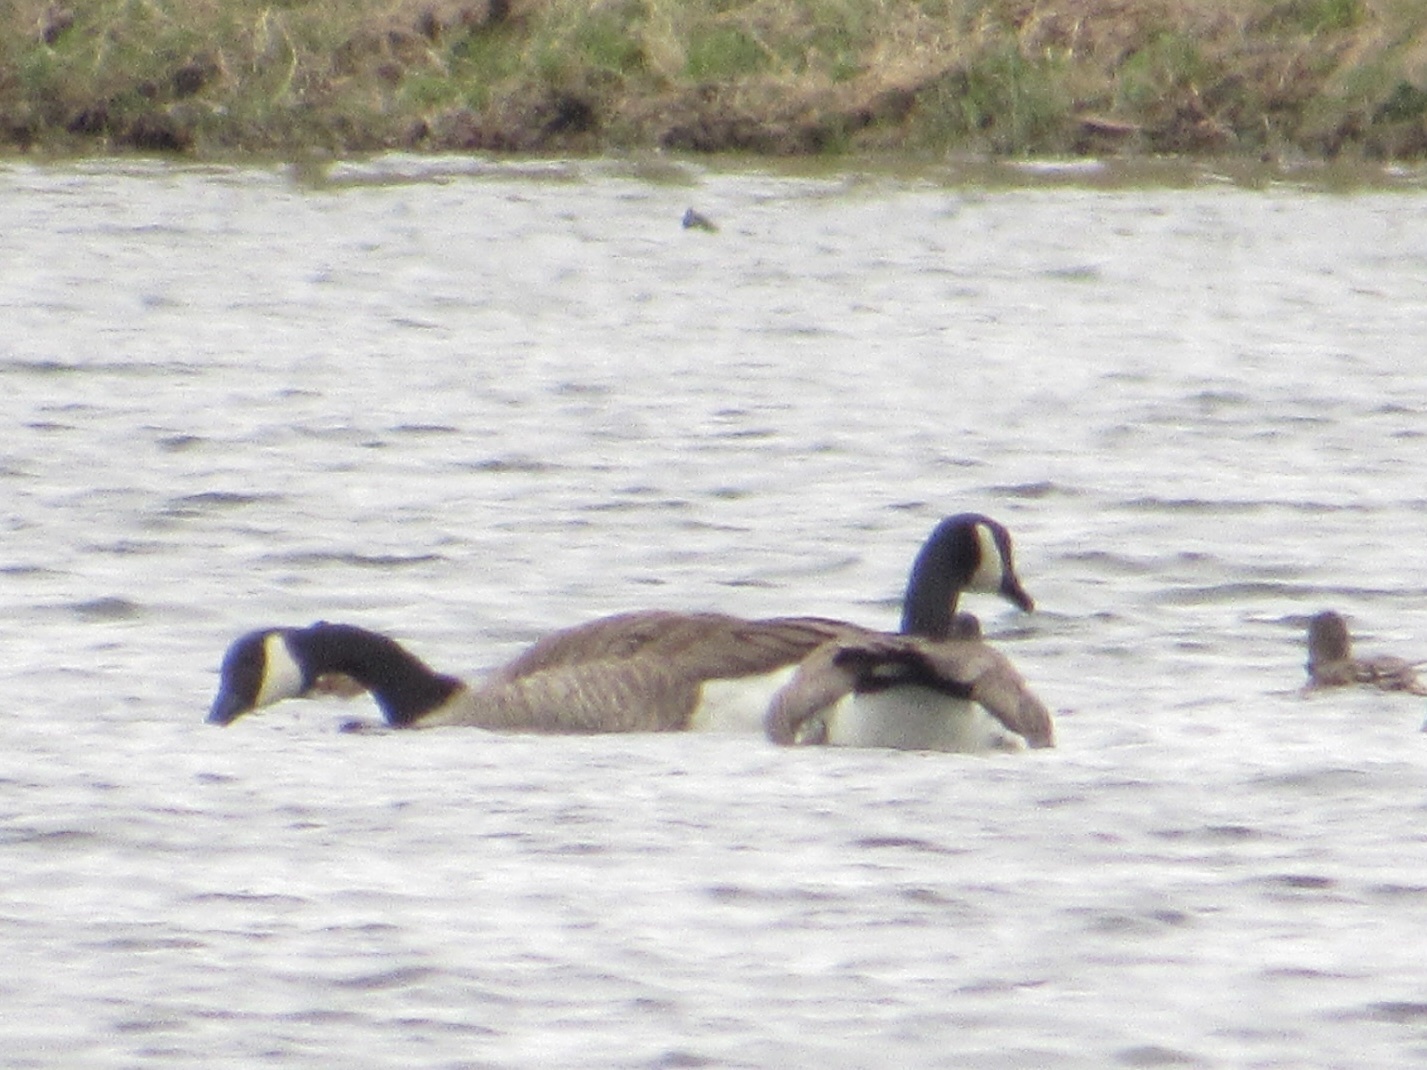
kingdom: Animalia
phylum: Chordata
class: Aves
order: Anseriformes
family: Anatidae
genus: Branta
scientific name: Branta canadensis
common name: Canada goose
